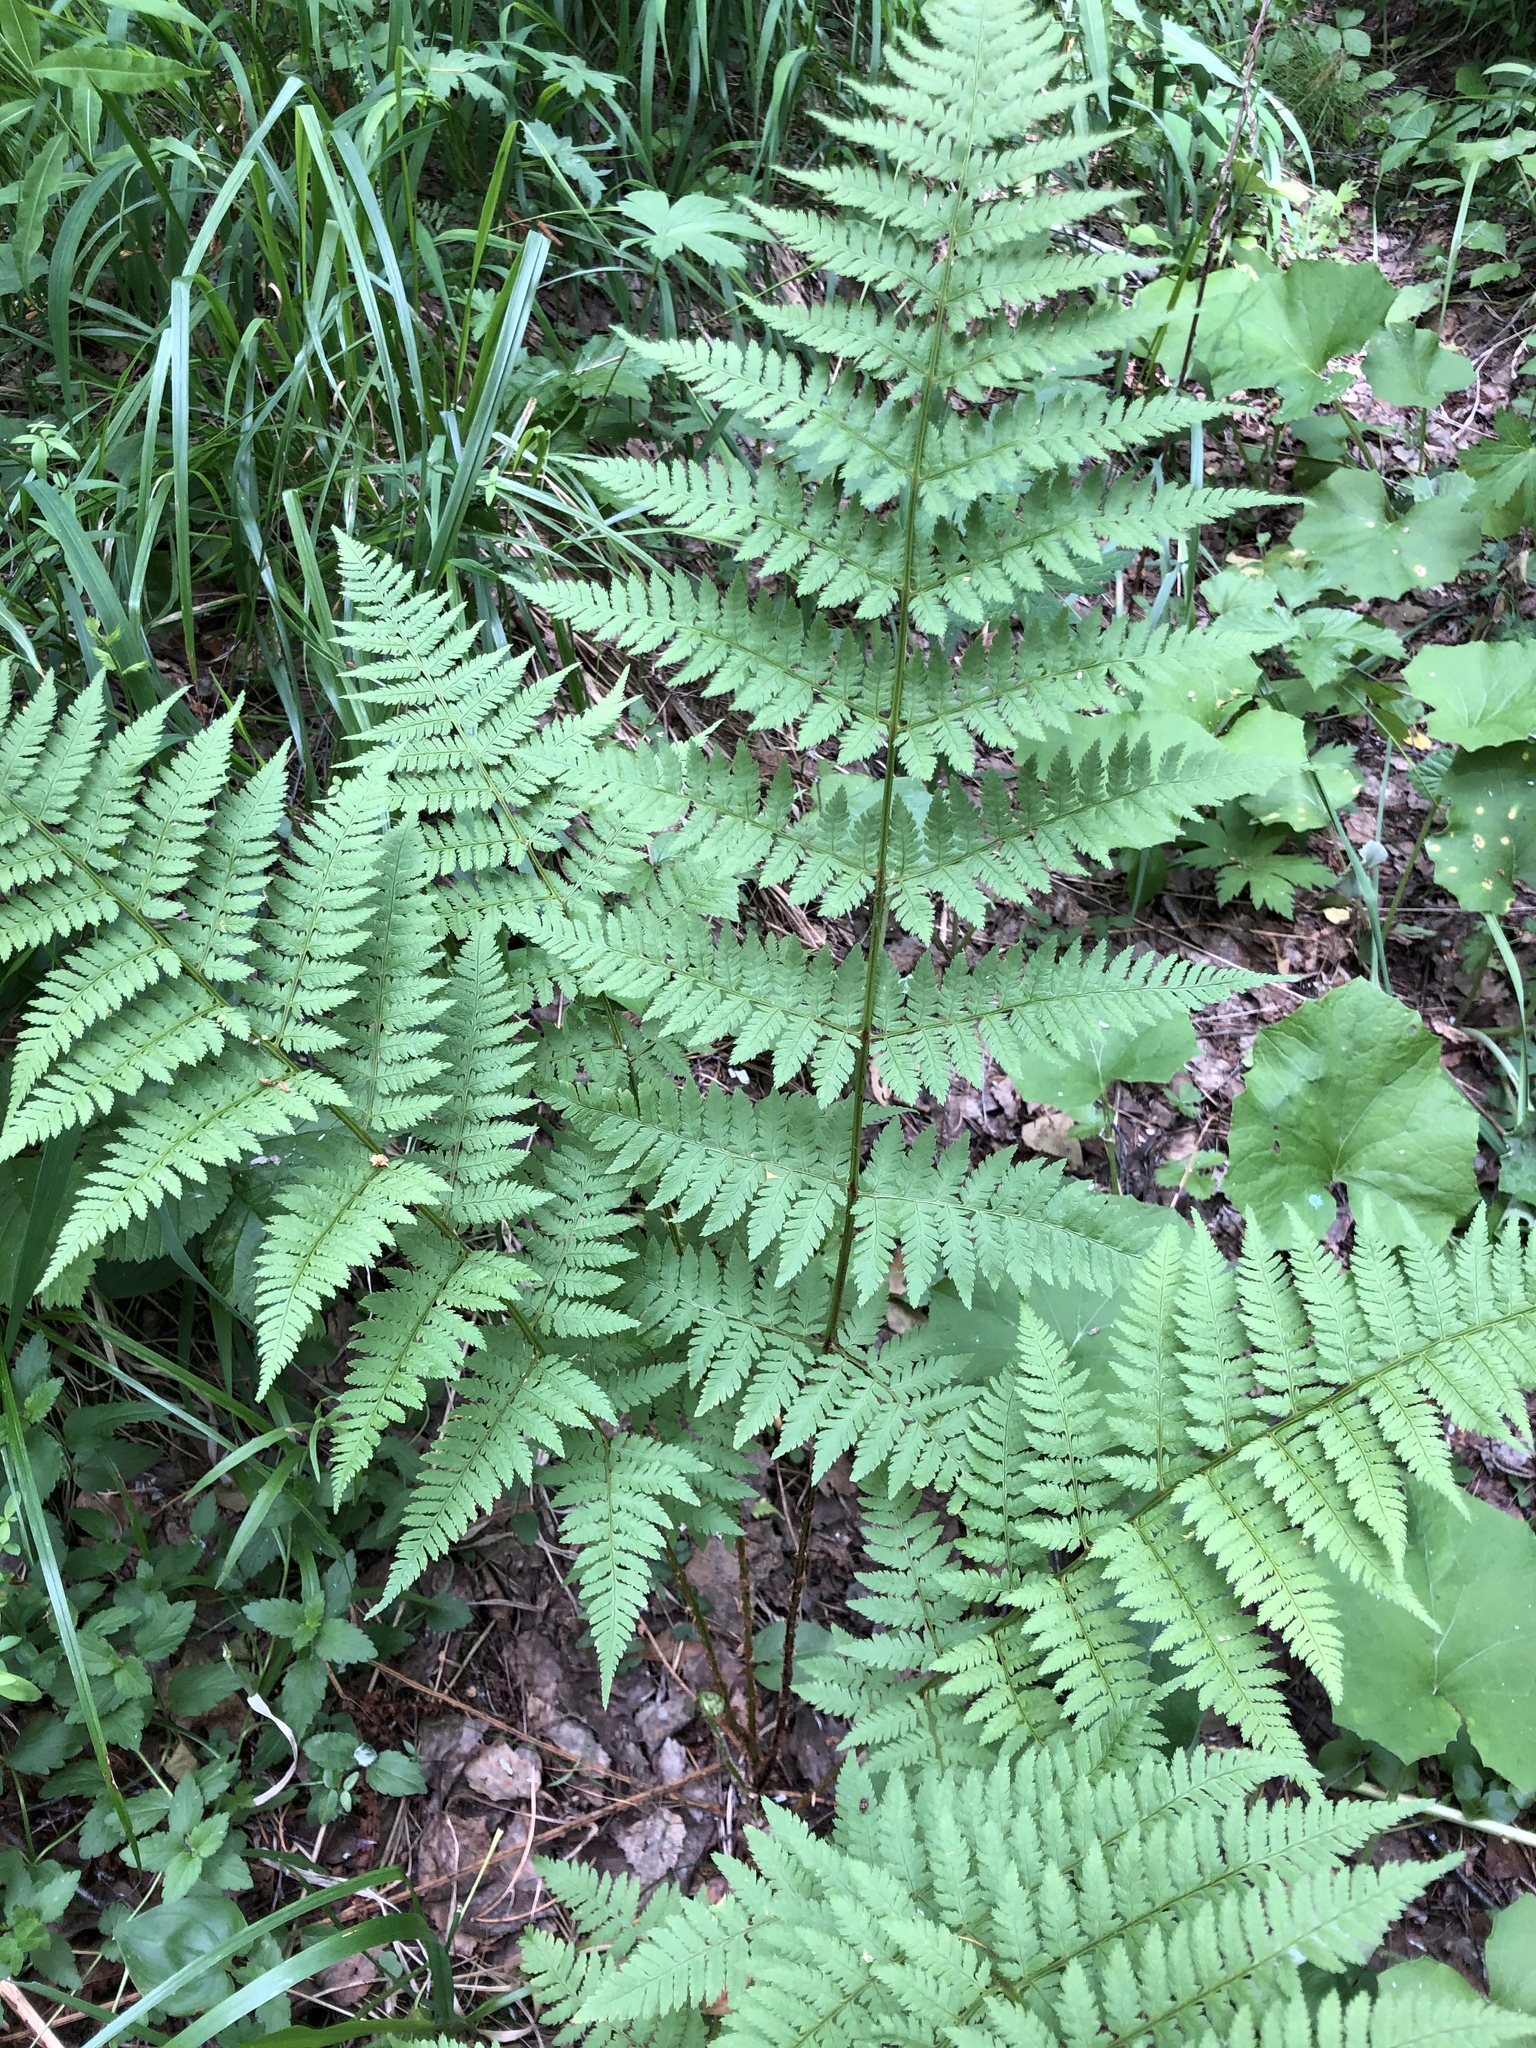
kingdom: Plantae
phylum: Tracheophyta
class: Polypodiopsida
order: Polypodiales
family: Dryopteridaceae
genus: Dryopteris
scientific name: Dryopteris carthusiana
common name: Narrow buckler-fern
